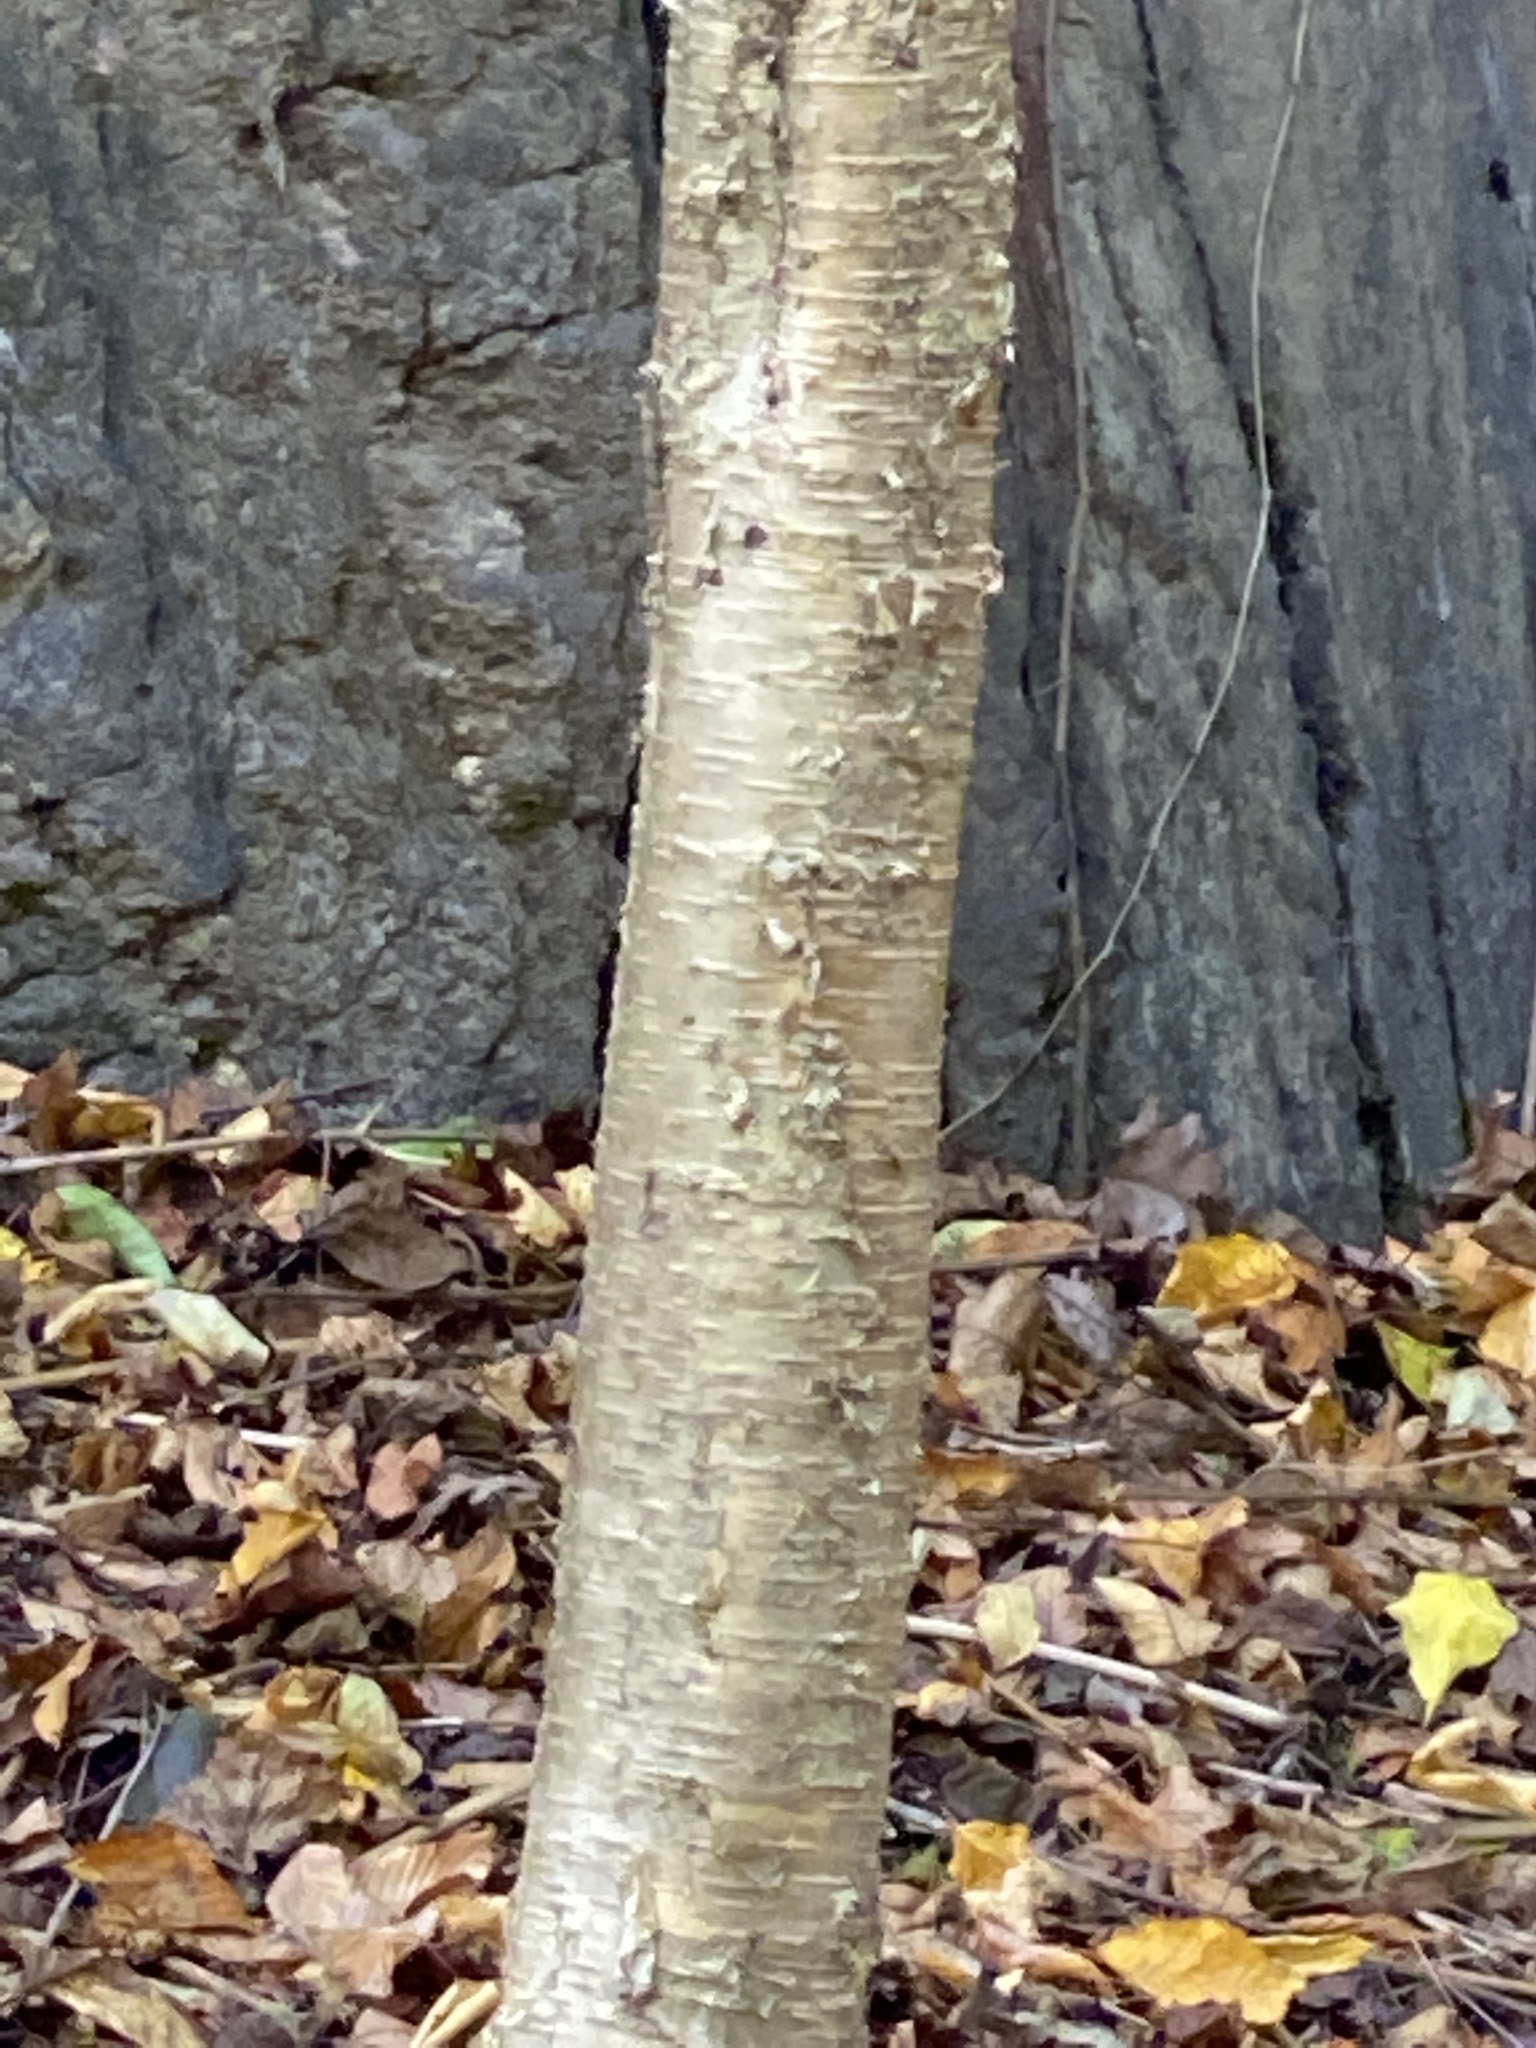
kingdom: Plantae
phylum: Tracheophyta
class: Magnoliopsida
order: Fagales
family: Betulaceae
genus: Betula
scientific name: Betula alleghaniensis
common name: Yellow birch
